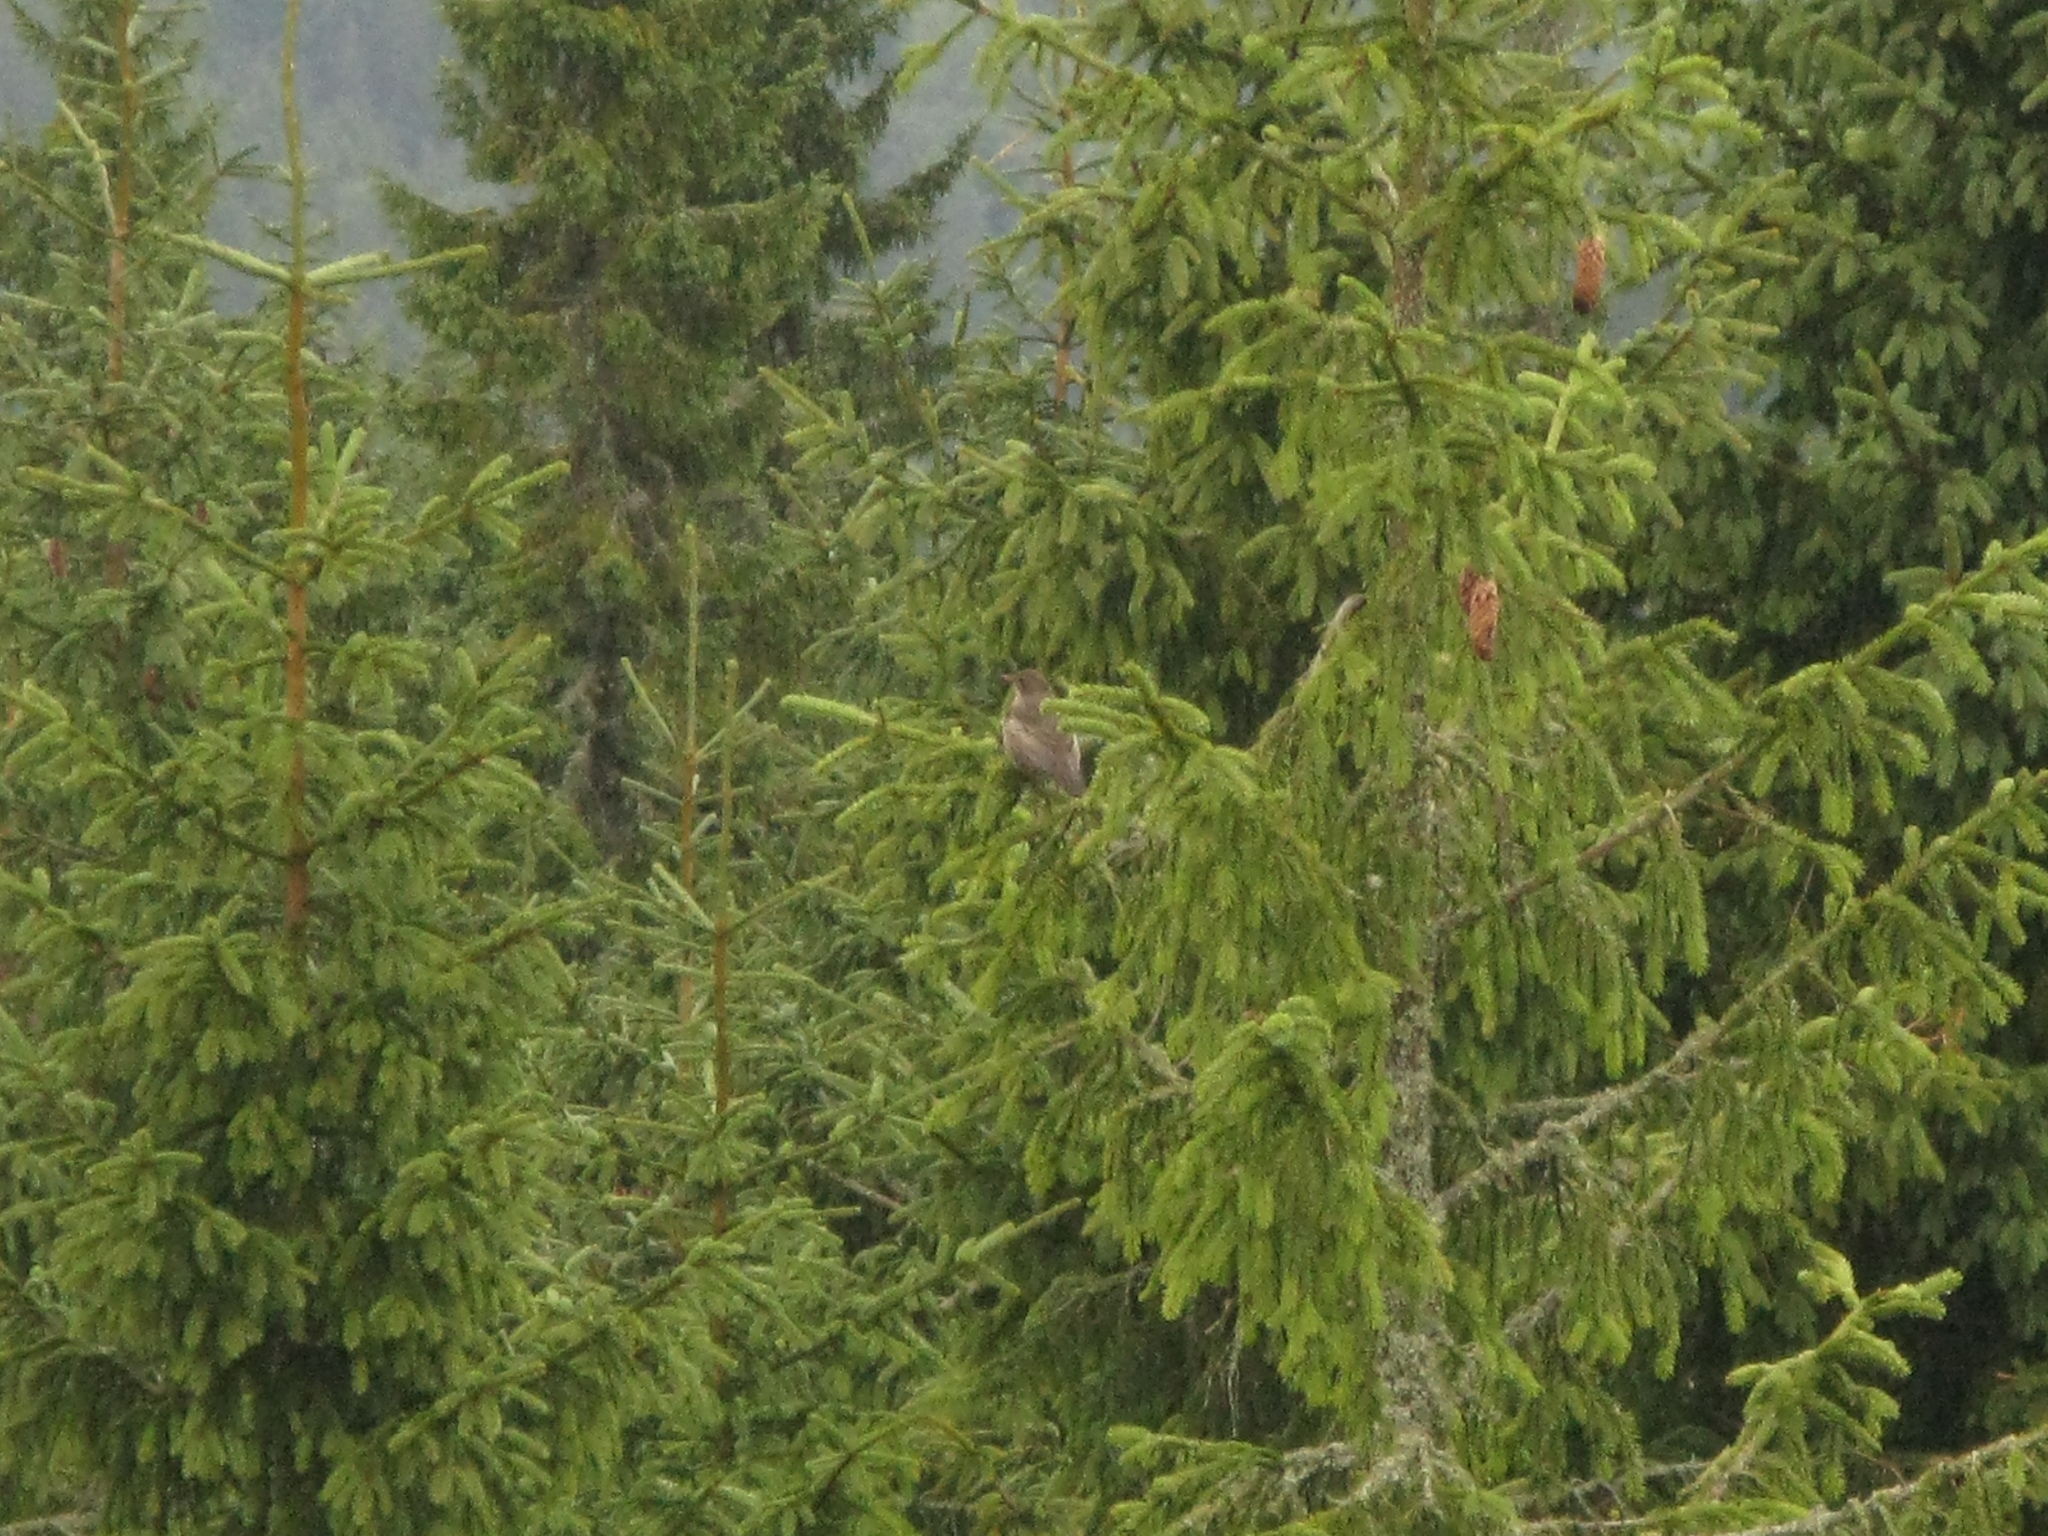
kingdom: Animalia
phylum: Chordata
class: Aves
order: Passeriformes
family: Turdidae
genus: Turdus
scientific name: Turdus torquatus
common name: Ring ouzel
